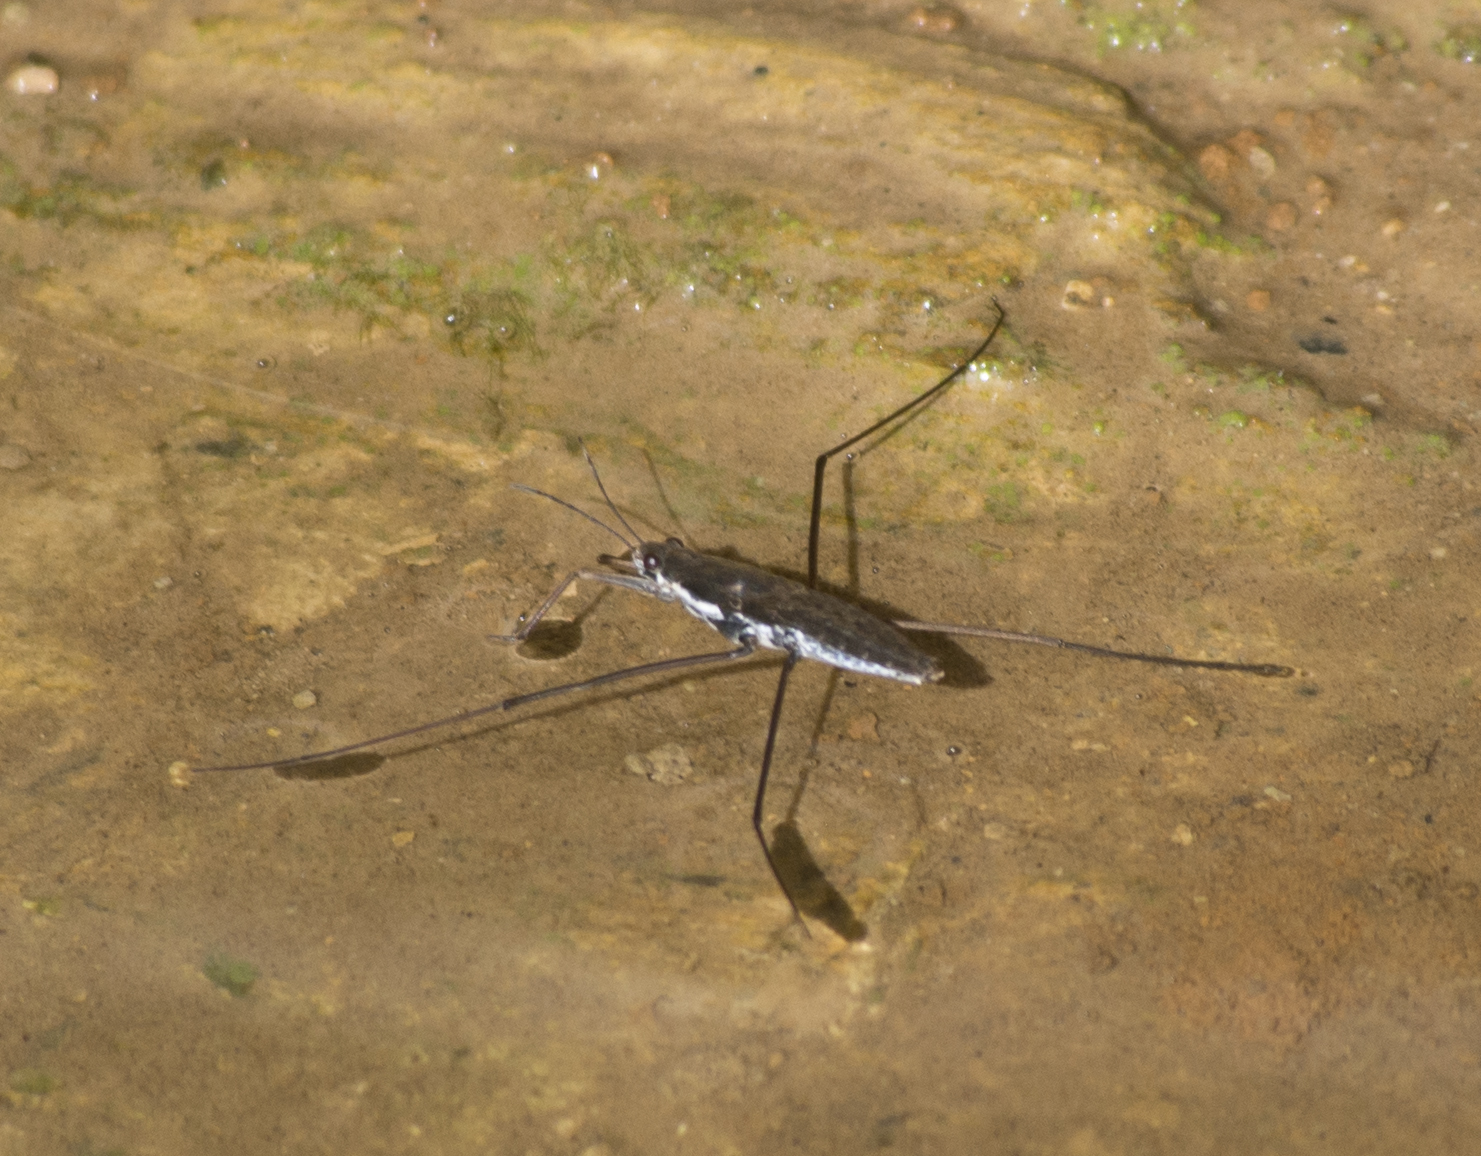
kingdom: Animalia
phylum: Arthropoda
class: Insecta
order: Hemiptera
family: Gerridae
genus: Aquarius
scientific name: Aquarius remigis
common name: Common water strider
